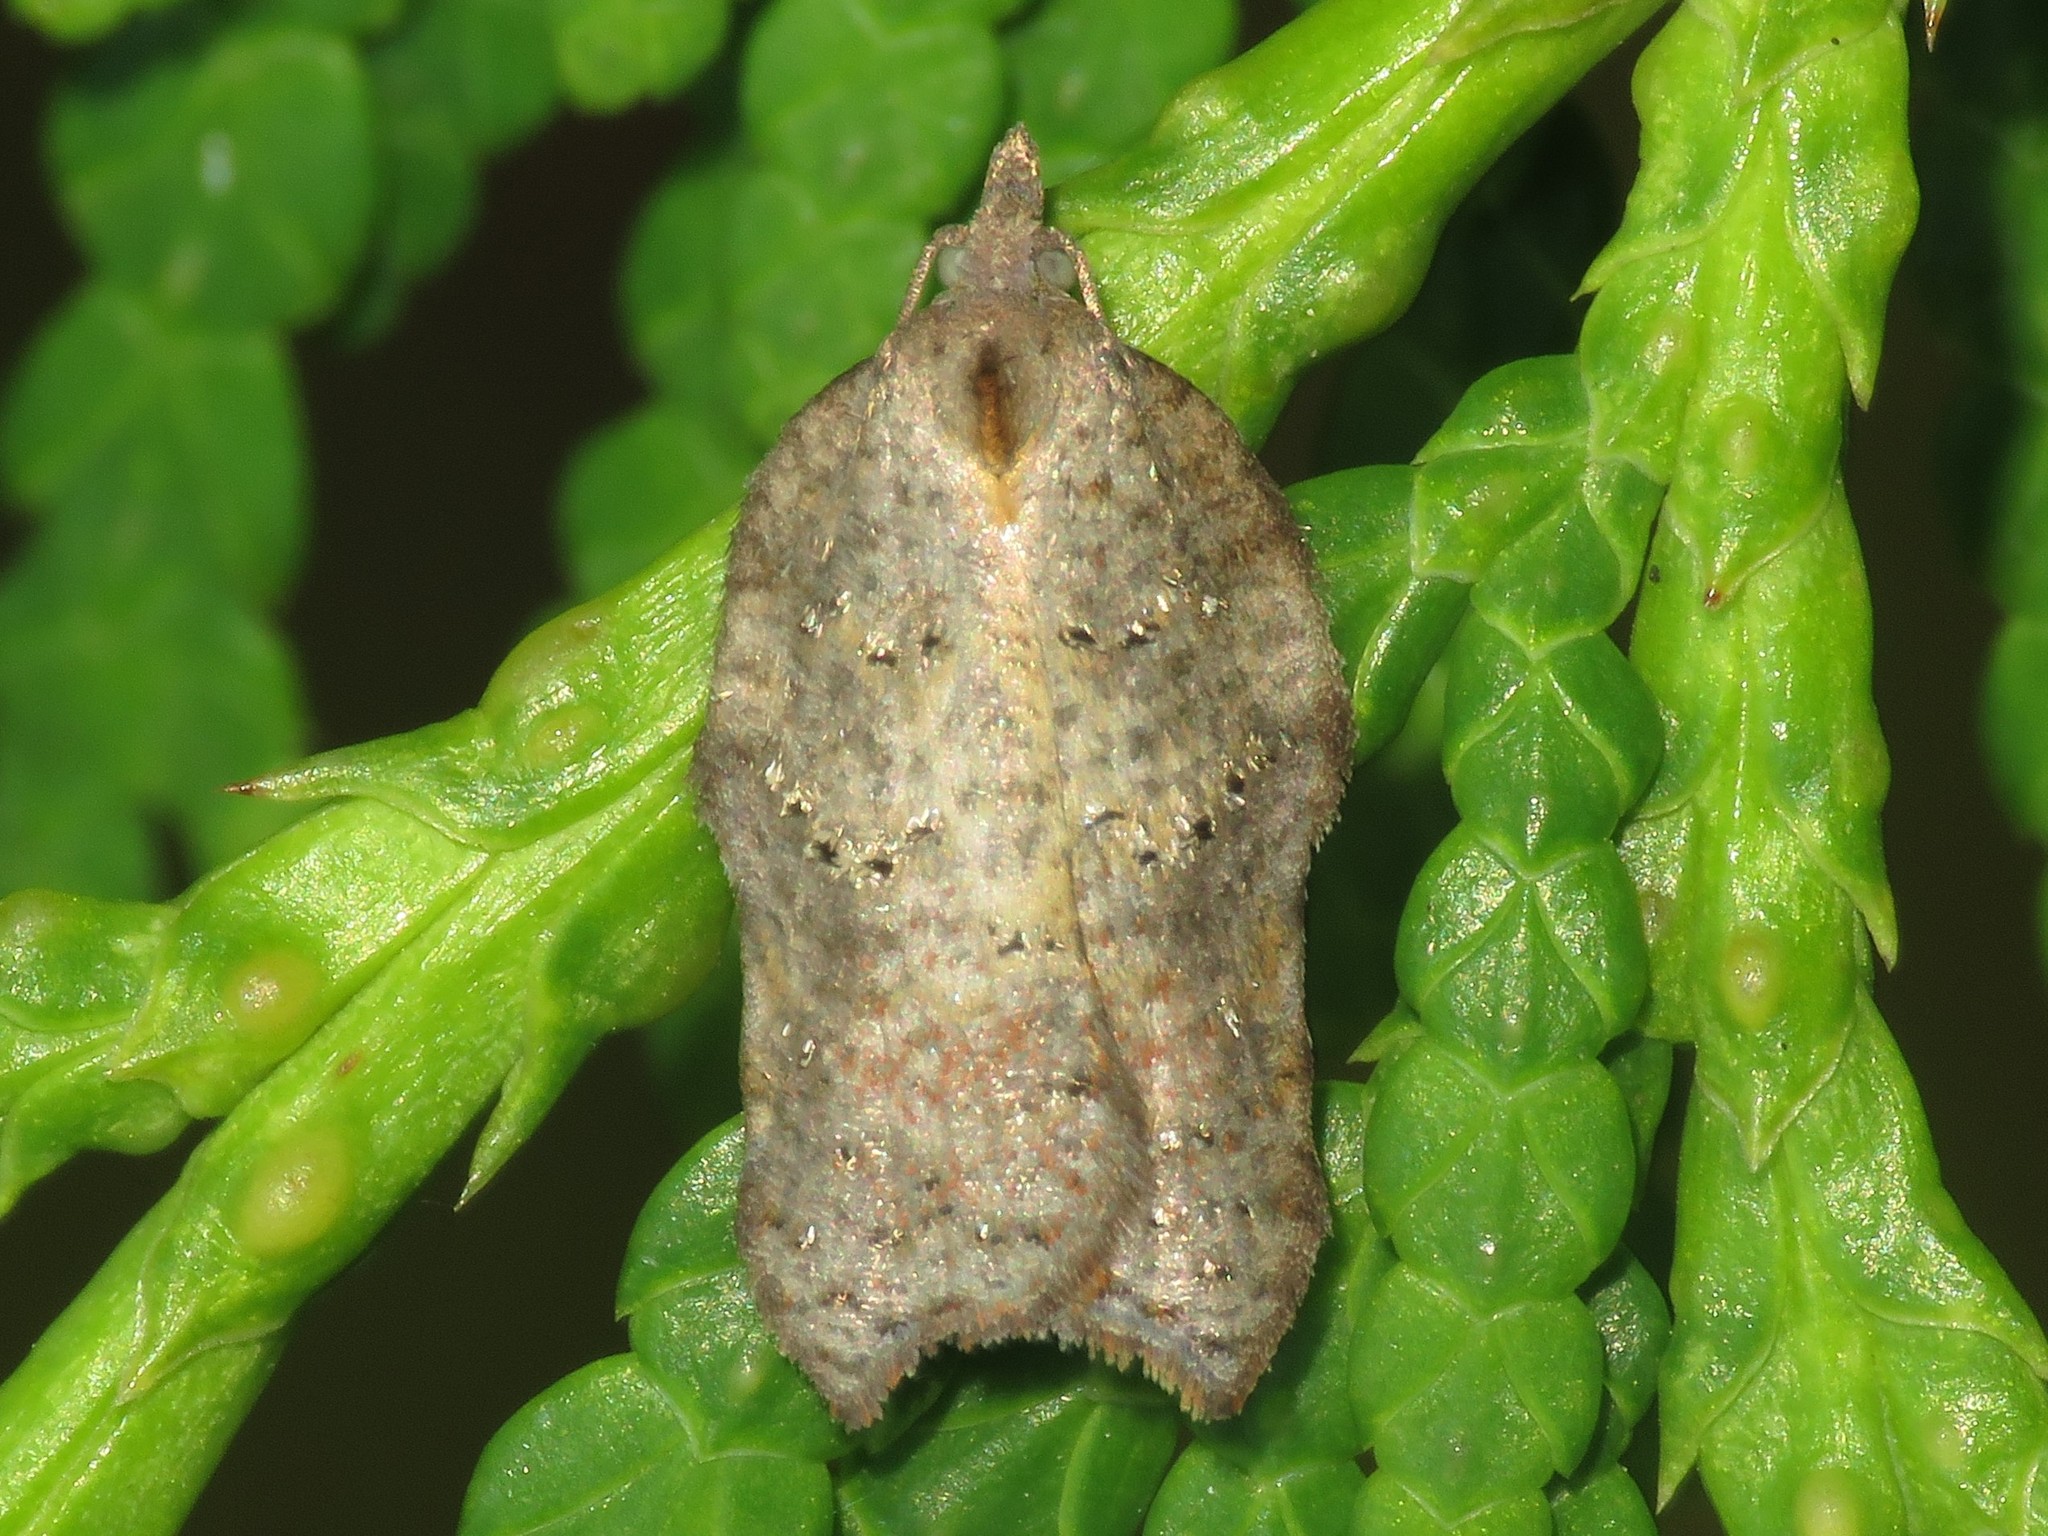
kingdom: Animalia
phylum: Arthropoda
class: Insecta
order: Lepidoptera
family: Tortricidae
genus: Acleris
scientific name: Acleris effractana
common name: Hook-winged tortrix moth
